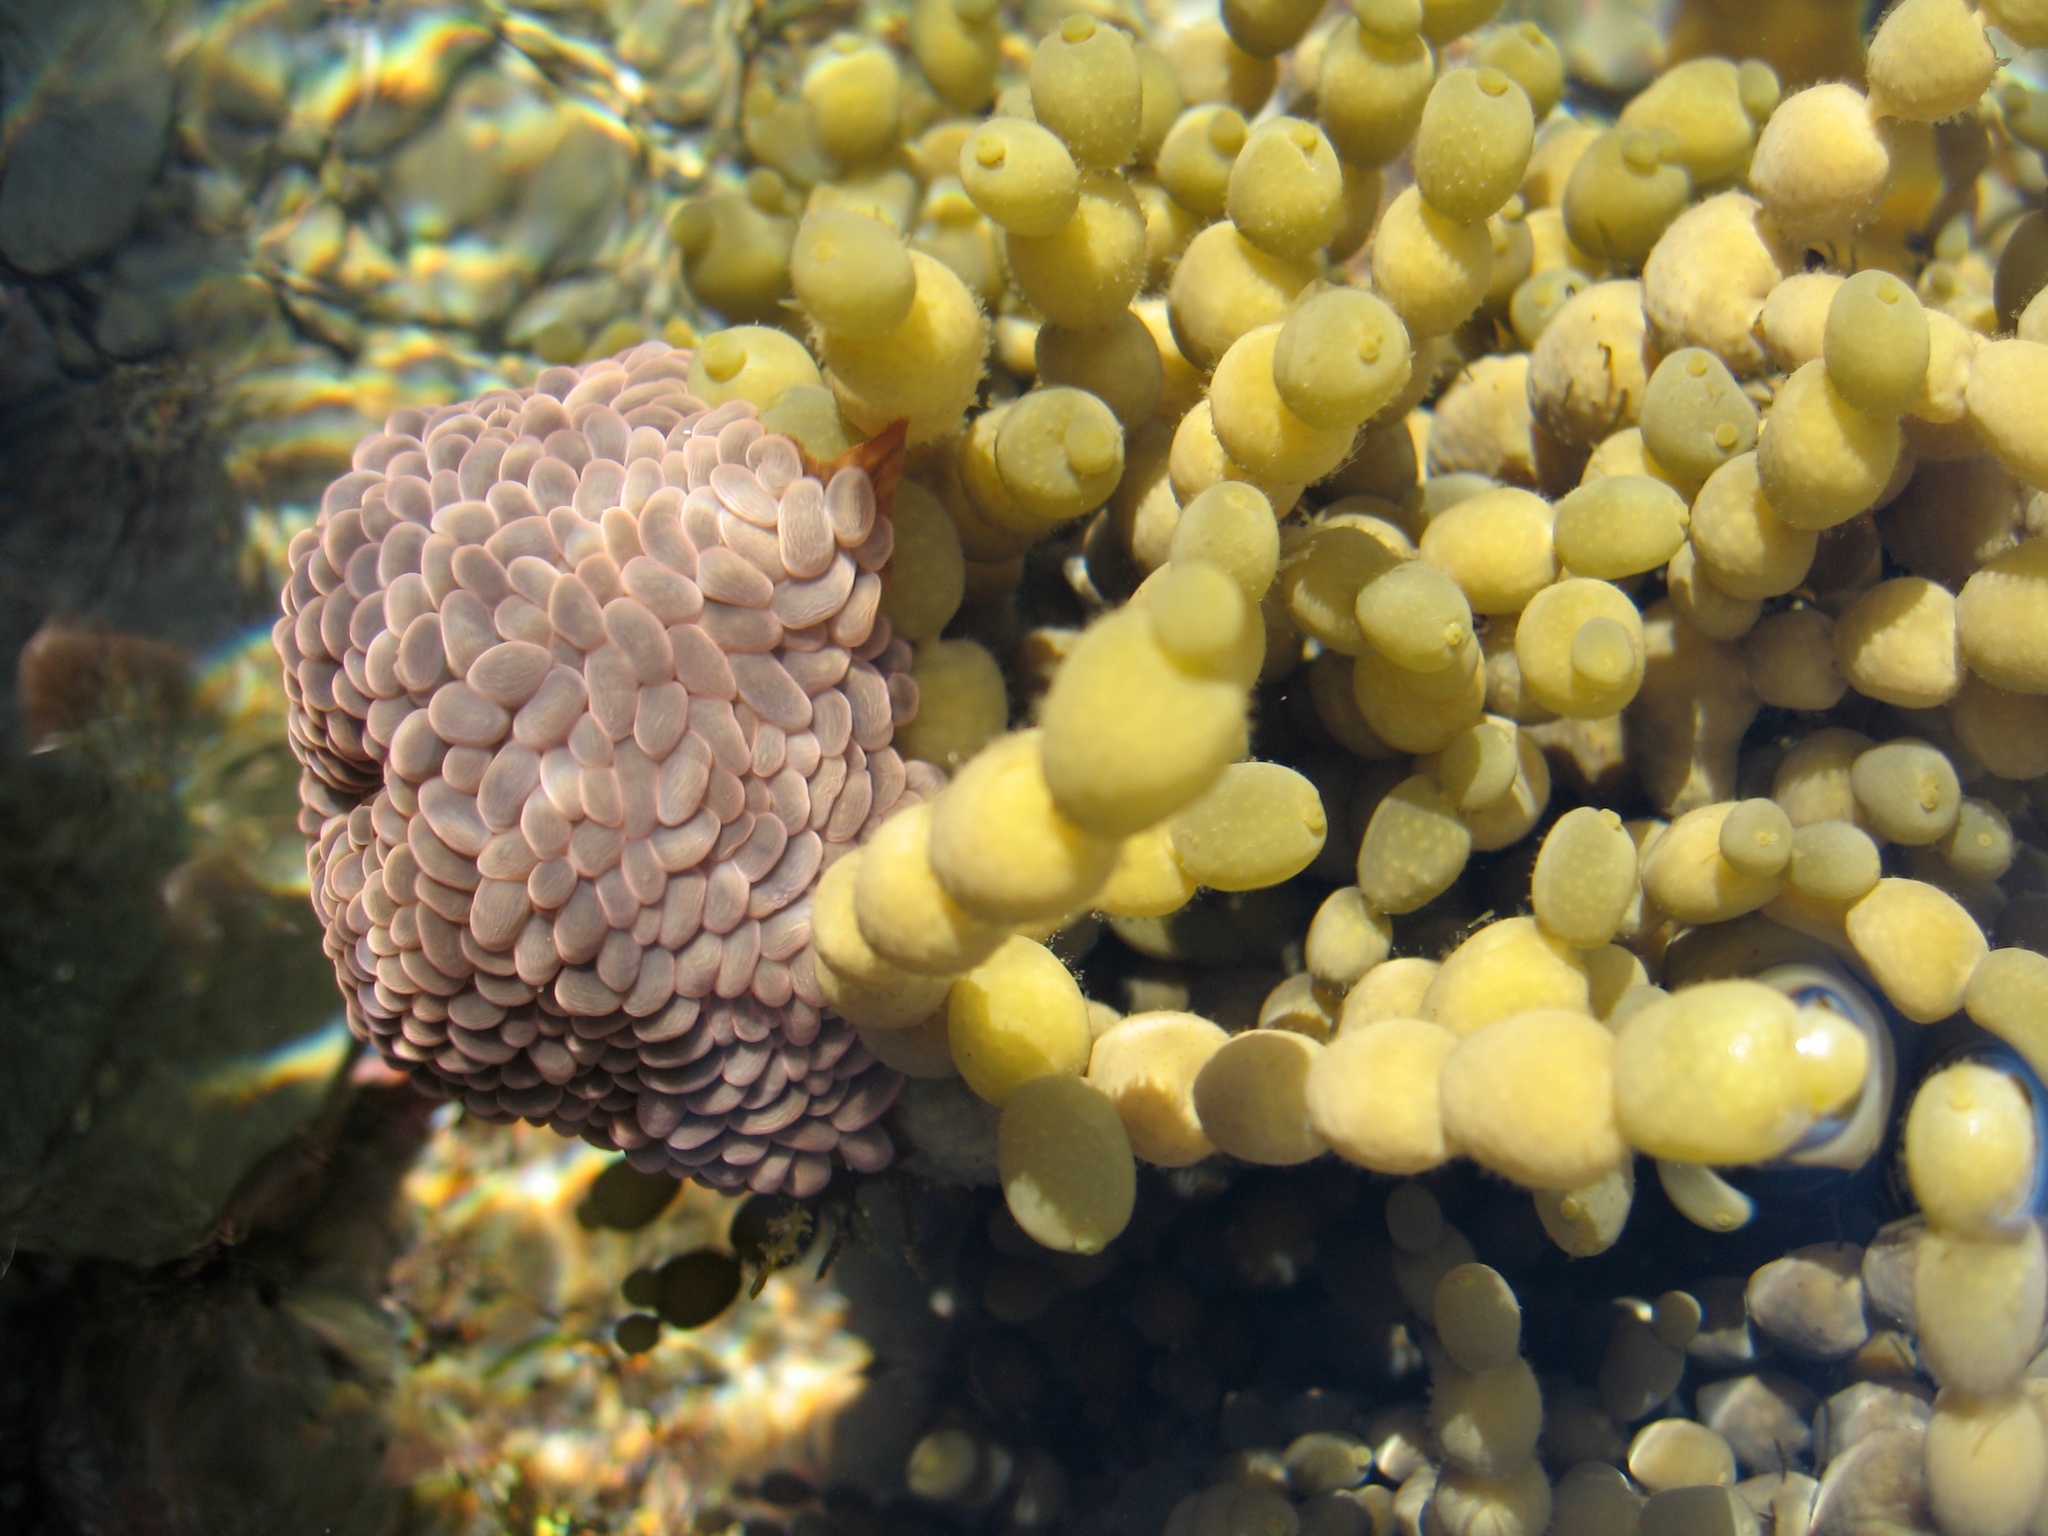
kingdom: Animalia
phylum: Cnidaria
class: Anthozoa
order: Actiniaria
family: Actiniidae
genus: Phlyctenactis
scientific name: Phlyctenactis tuberculosa
